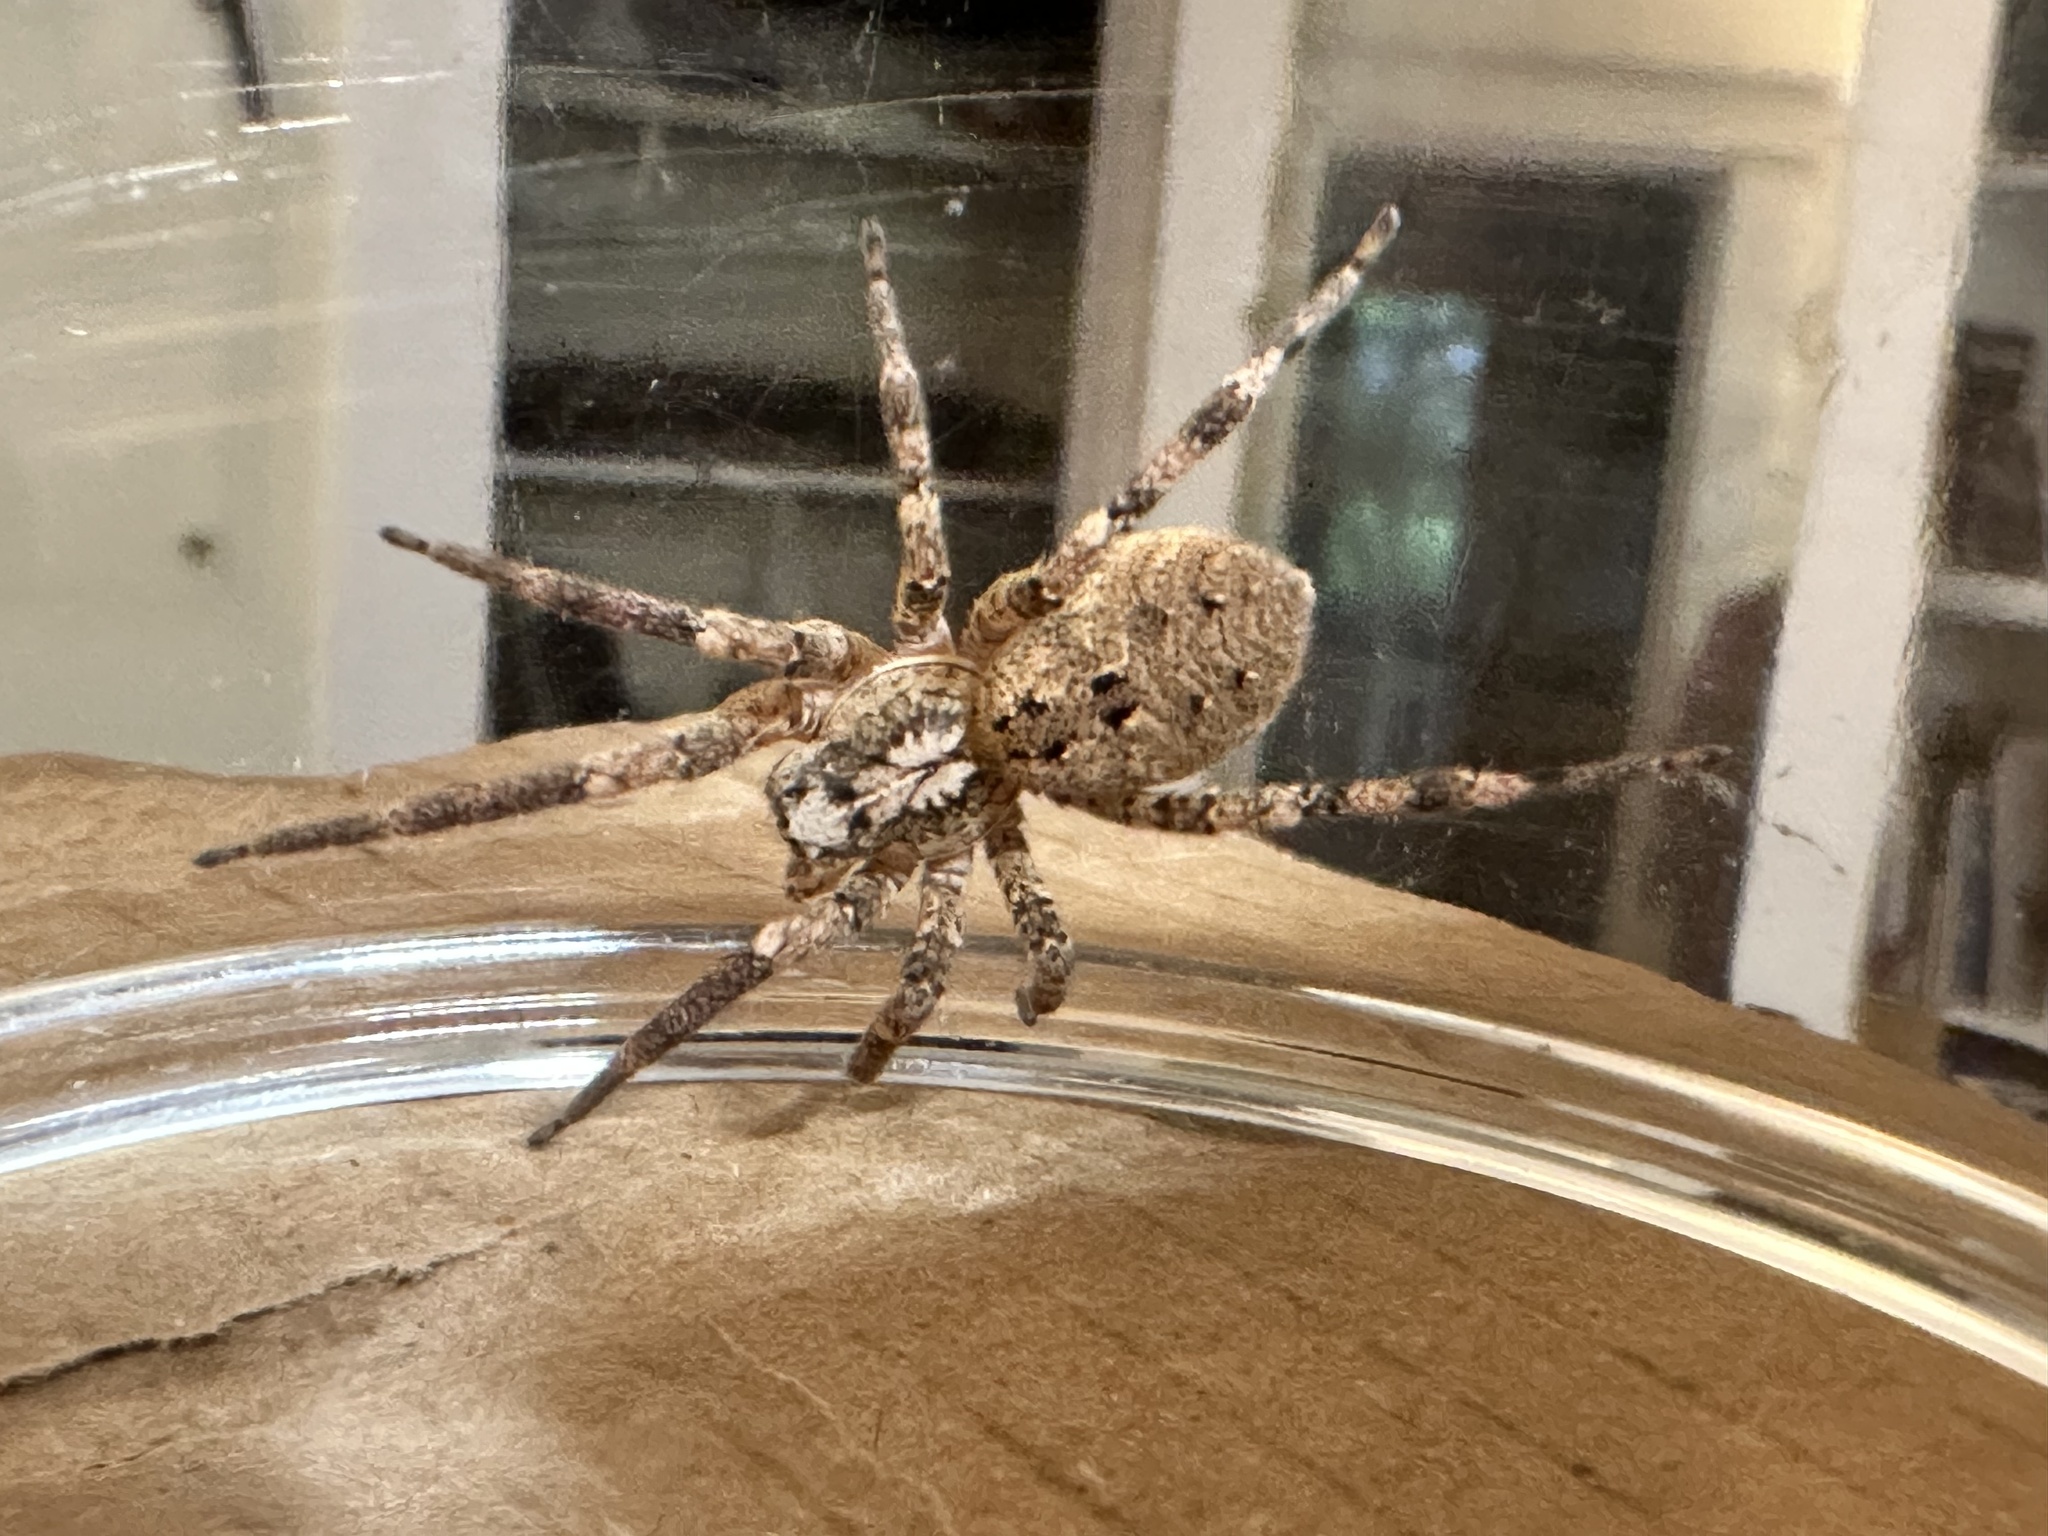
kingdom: Animalia
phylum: Arthropoda
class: Arachnida
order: Araneae
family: Zoropsidae
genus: Zoropsis
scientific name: Zoropsis spinimana
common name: Zoropsid spider
